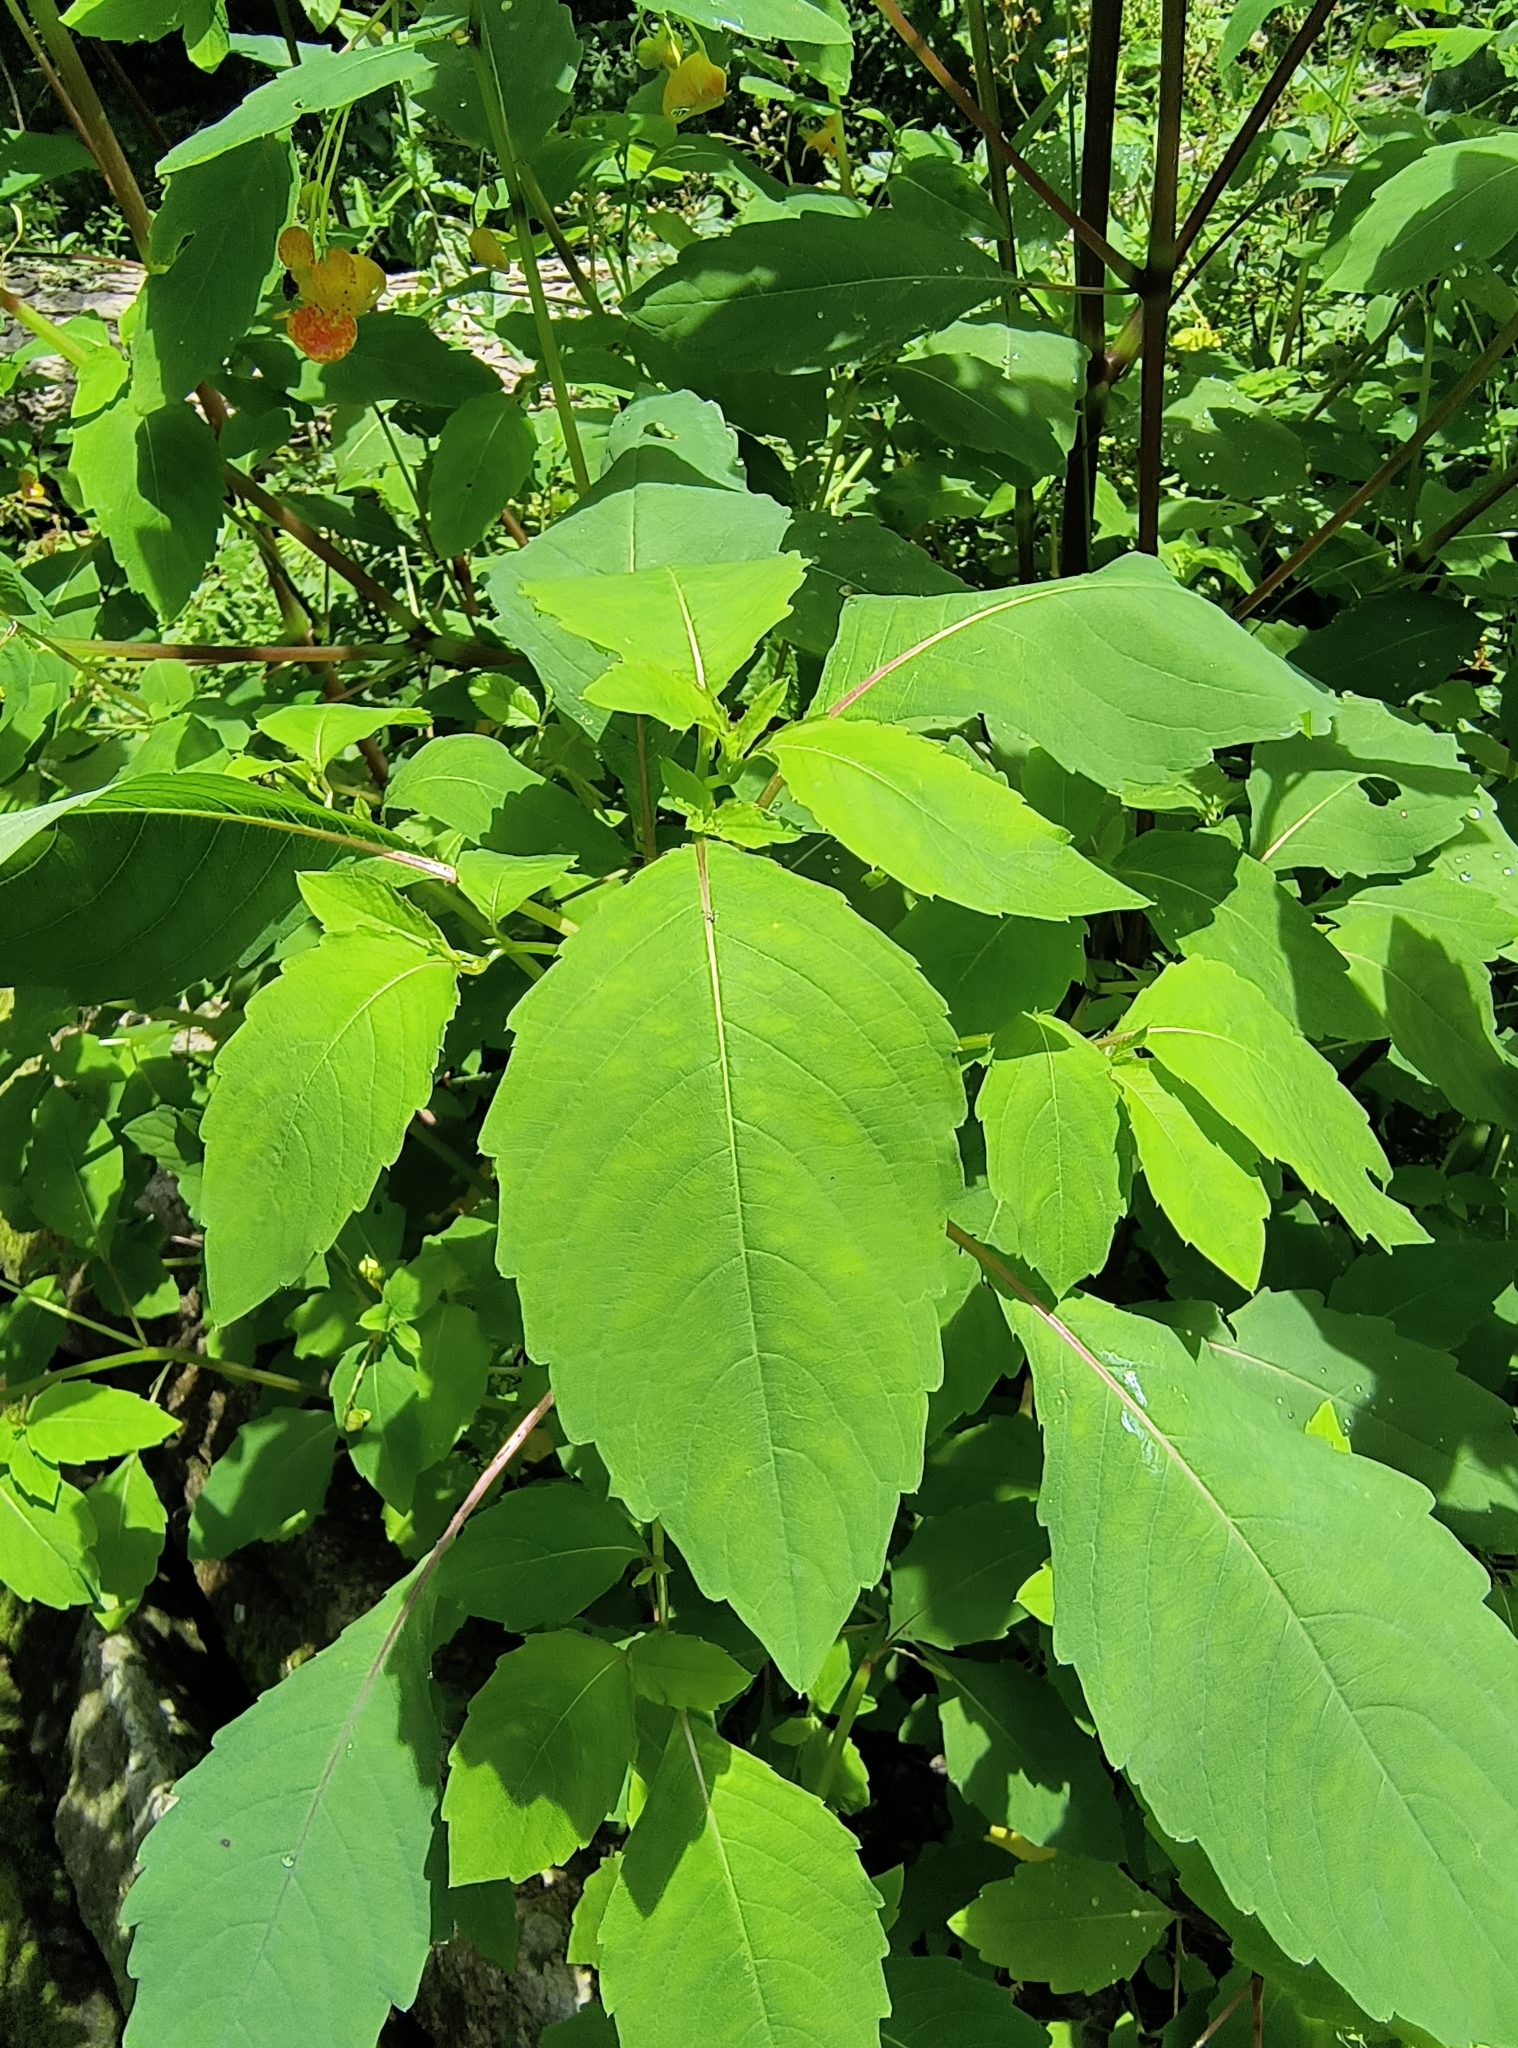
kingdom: Plantae
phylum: Tracheophyta
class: Magnoliopsida
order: Ericales
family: Balsaminaceae
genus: Impatiens
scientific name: Impatiens capensis
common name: Orange balsam
